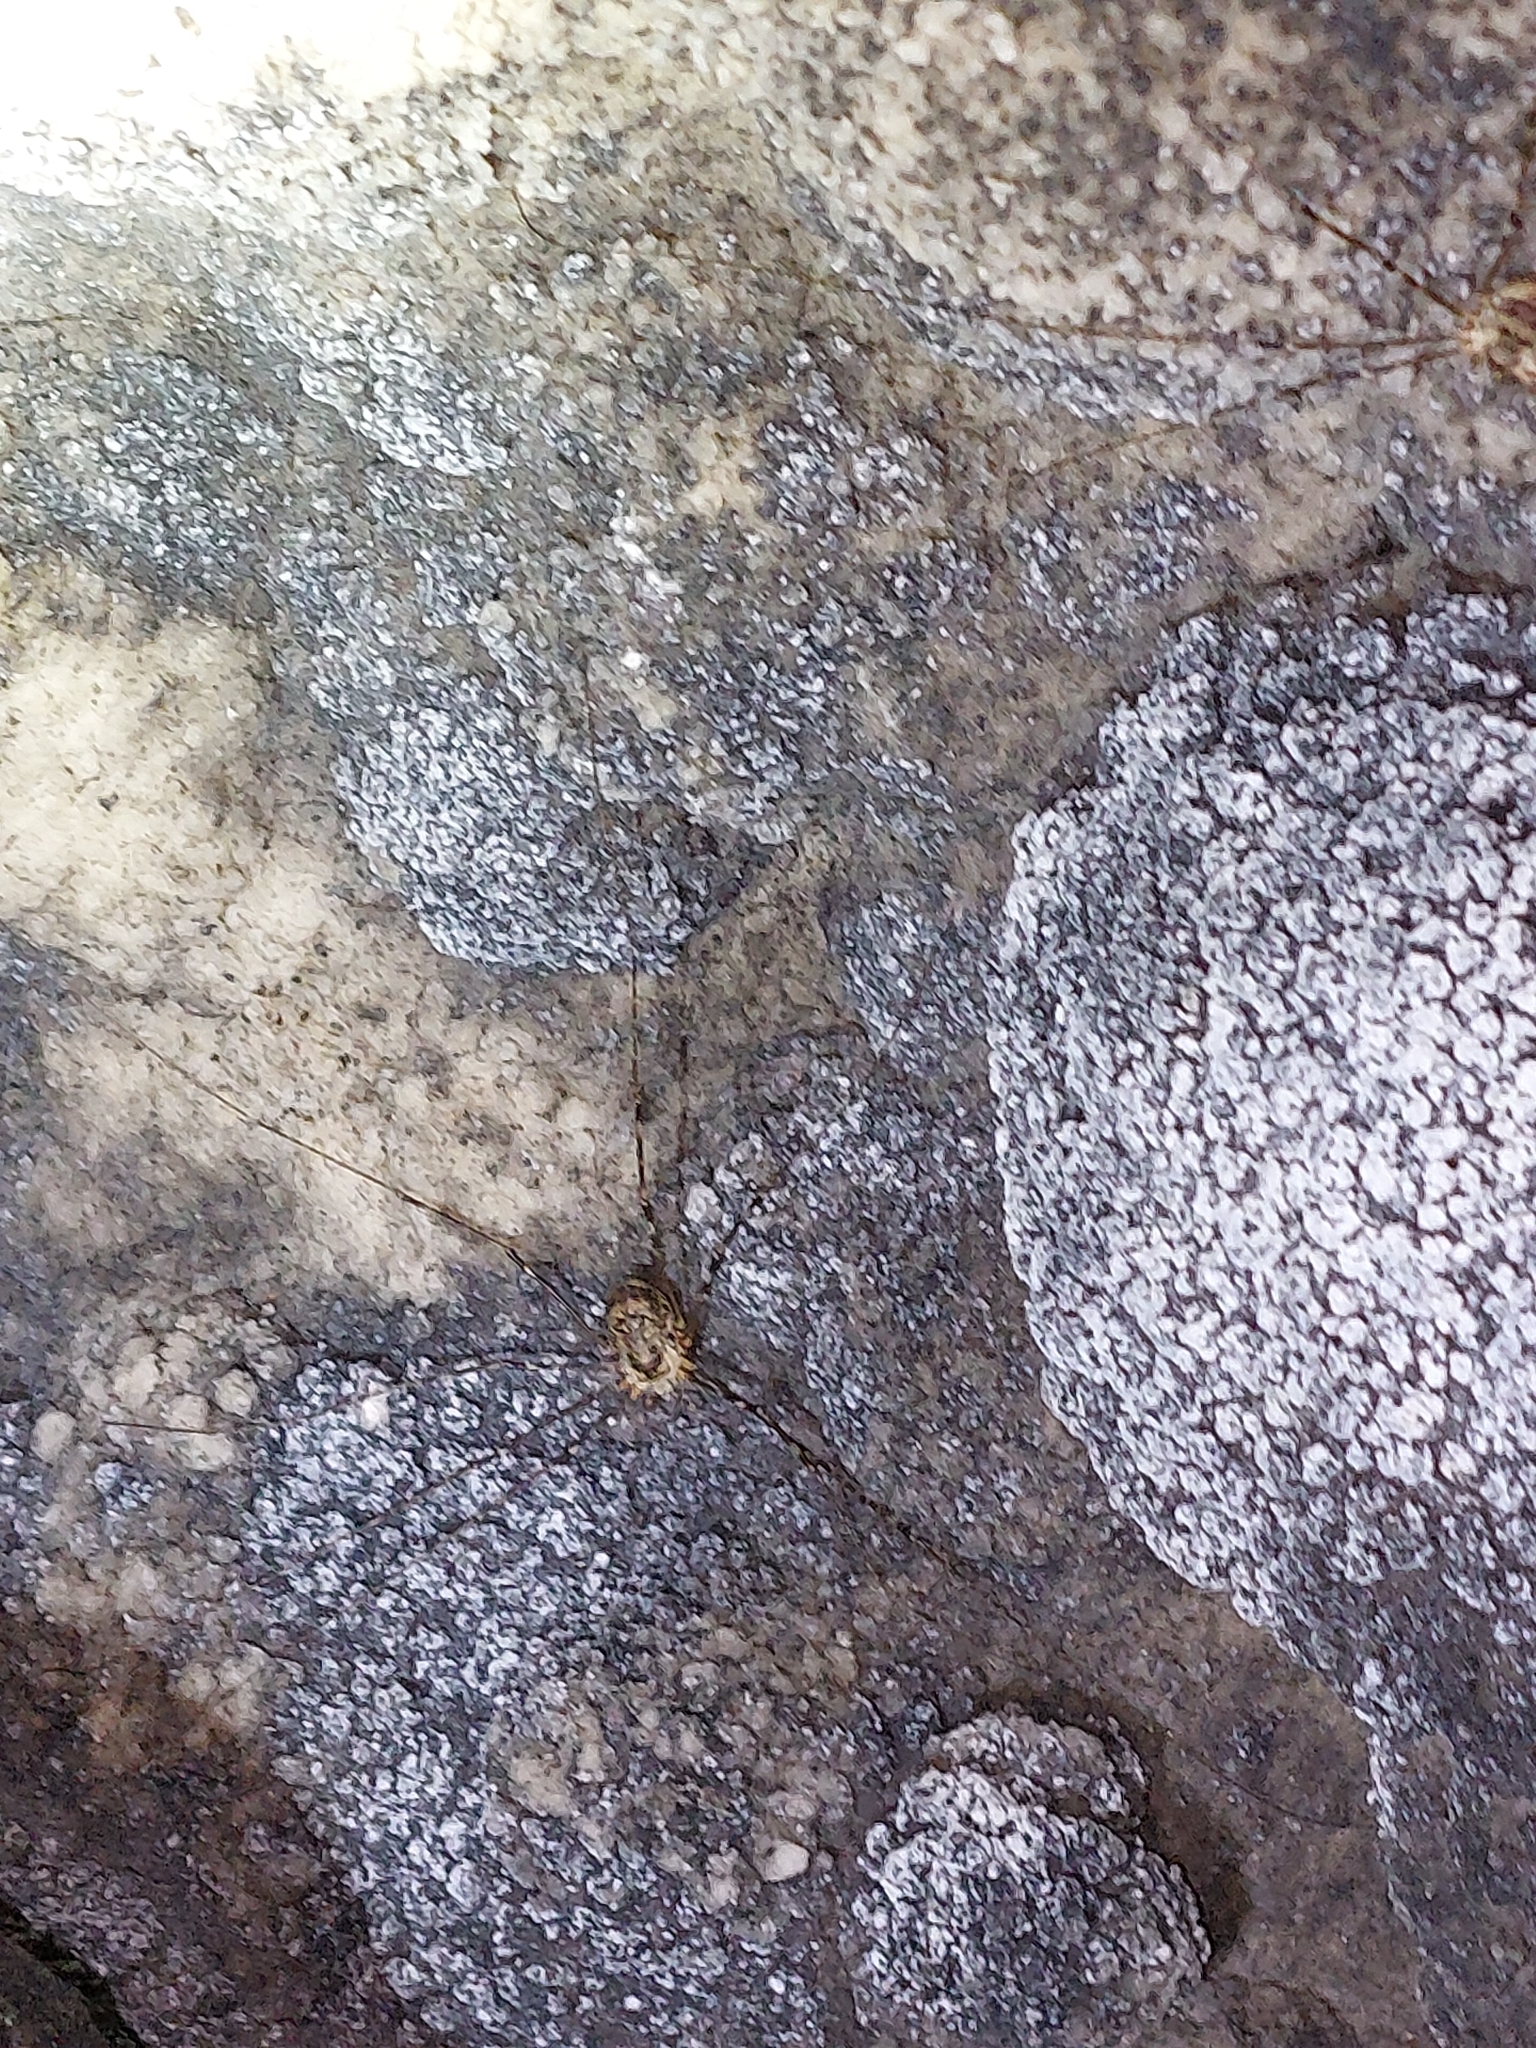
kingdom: Animalia
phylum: Arthropoda
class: Arachnida
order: Opiliones
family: Phalangiidae
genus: Amilenus
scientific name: Amilenus aurantiacus
